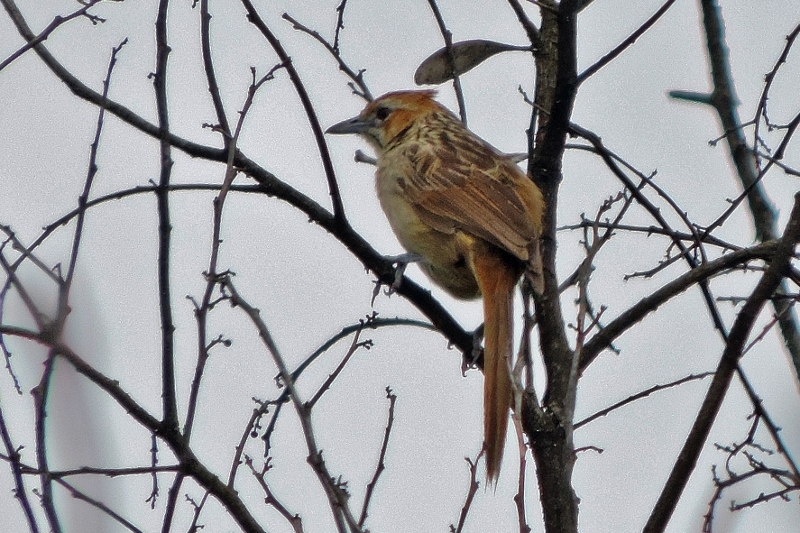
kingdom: Animalia
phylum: Chordata
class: Aves
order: Passeriformes
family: Macrosphenidae
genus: Sphenoeacus
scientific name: Sphenoeacus afer
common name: Cape grassbird
